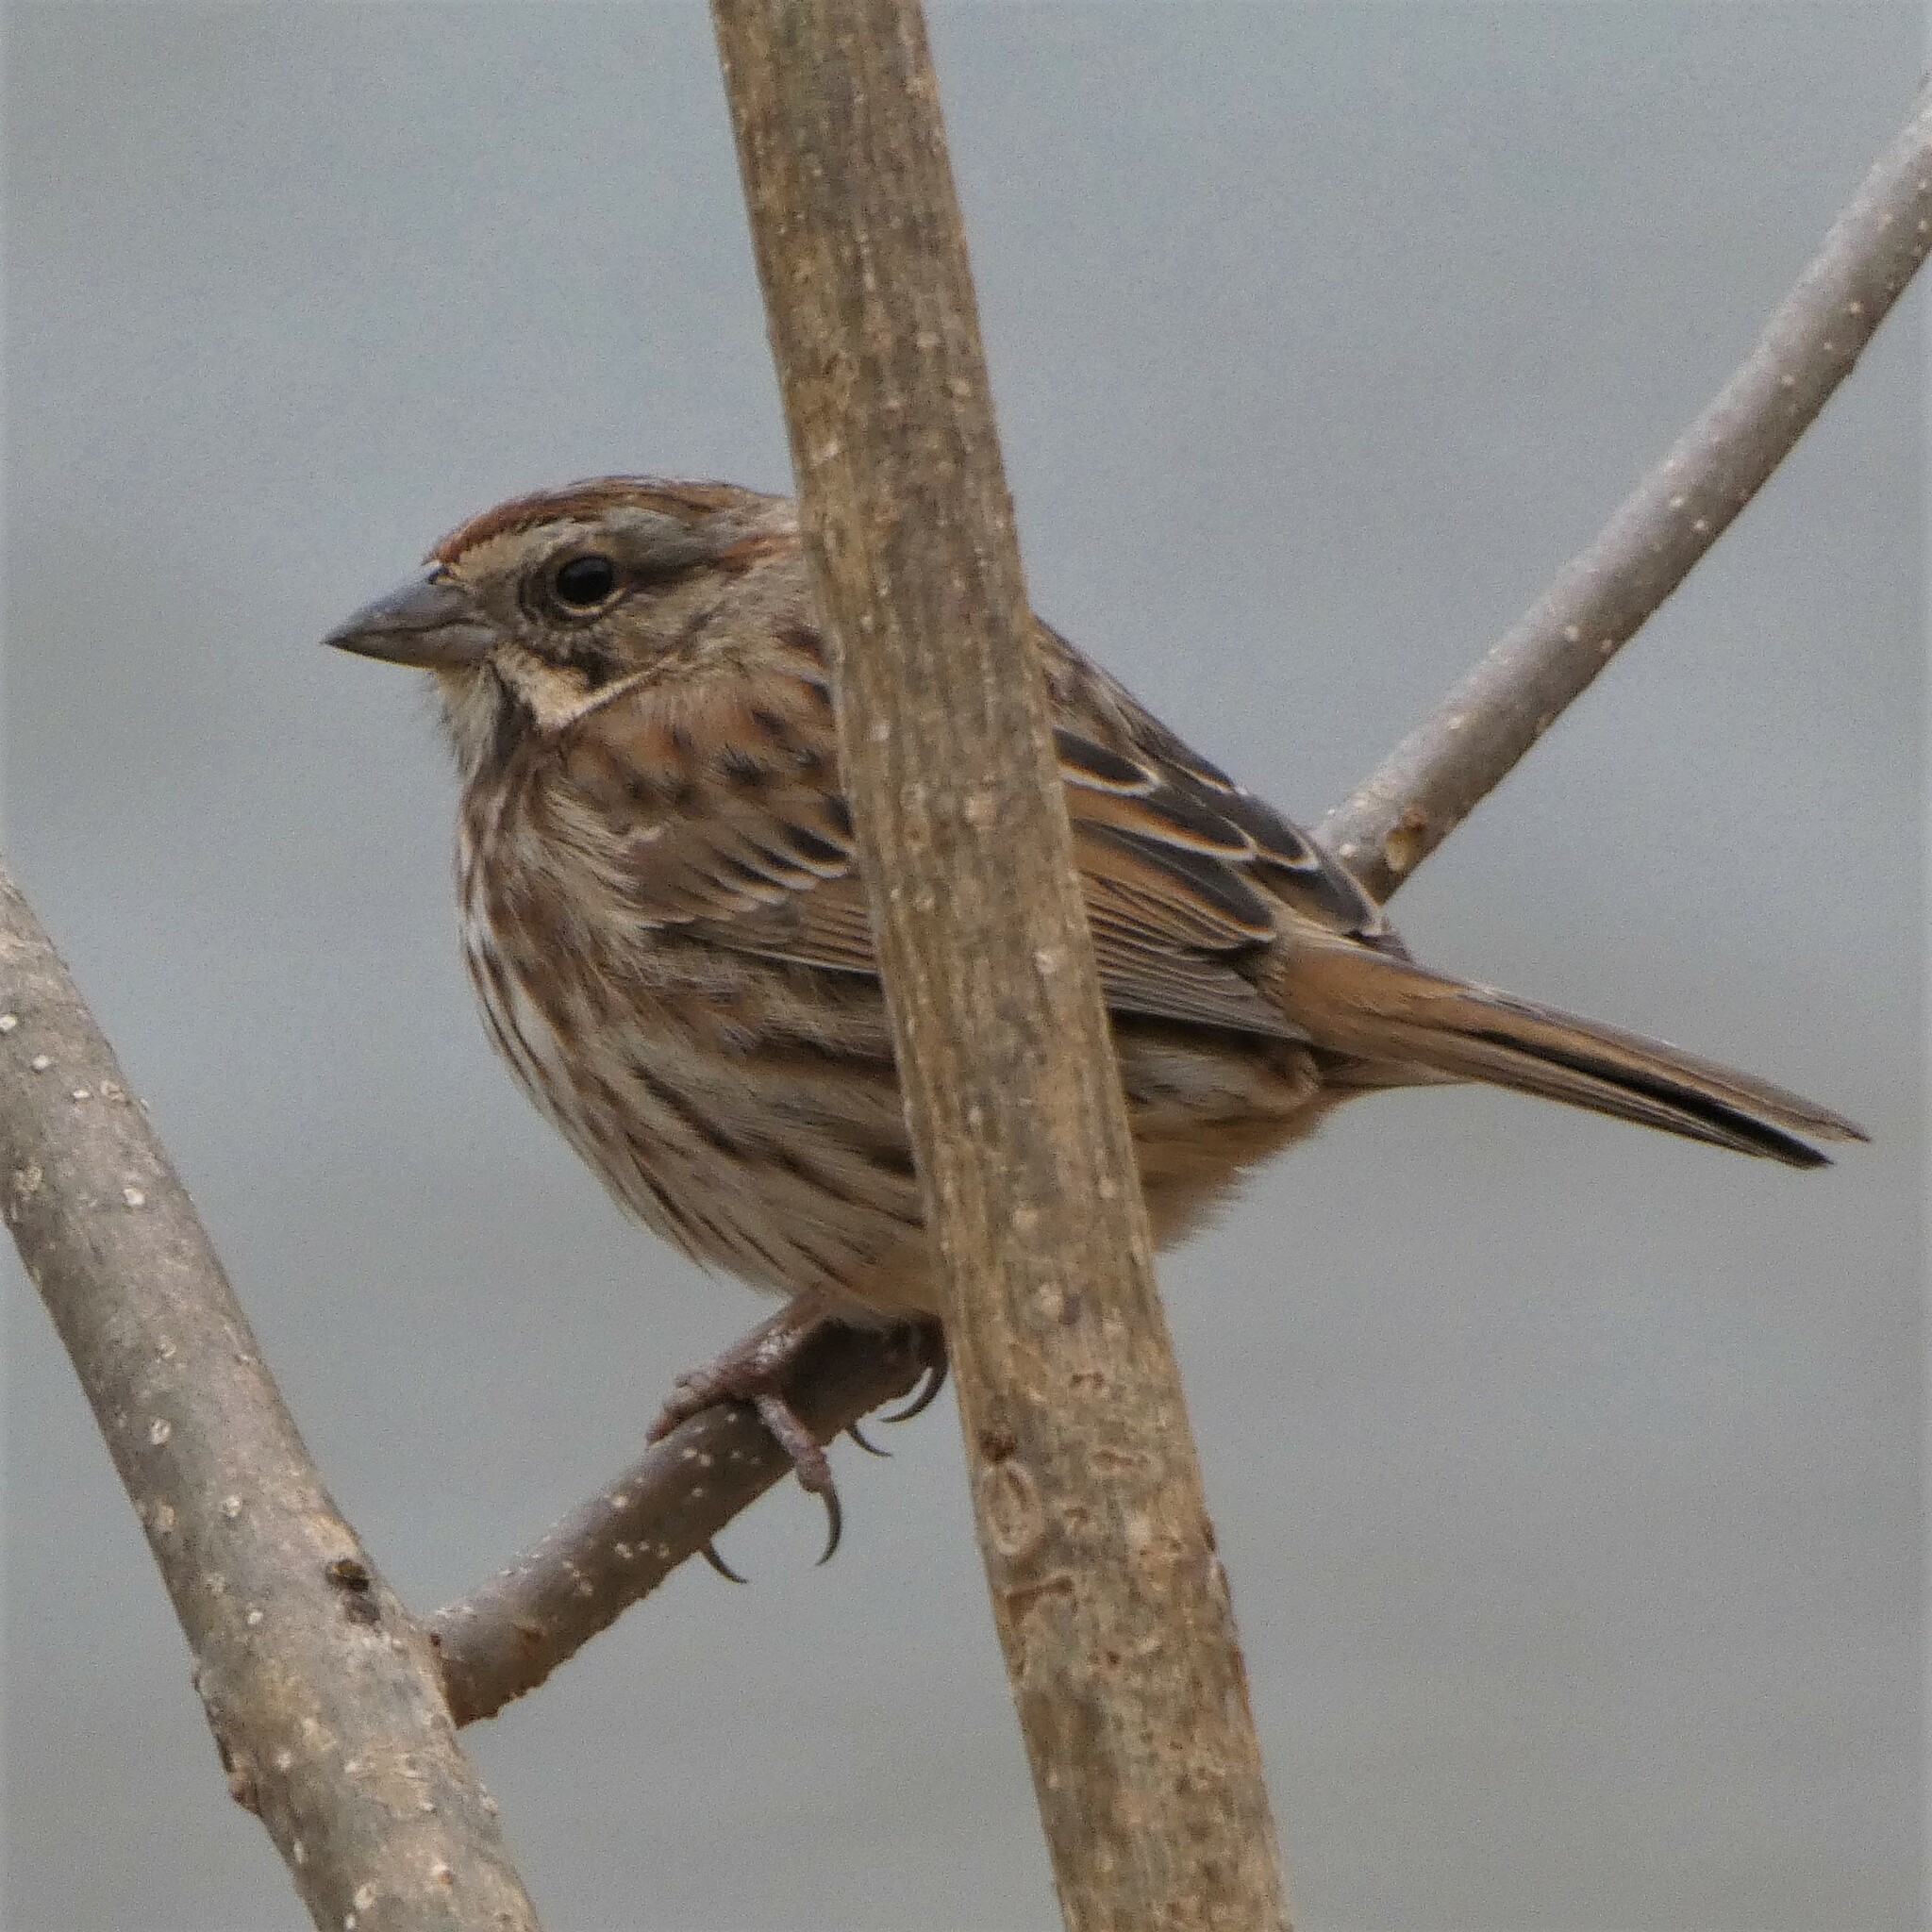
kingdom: Animalia
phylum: Chordata
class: Aves
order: Passeriformes
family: Passerellidae
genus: Melospiza
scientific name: Melospiza melodia
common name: Song sparrow
